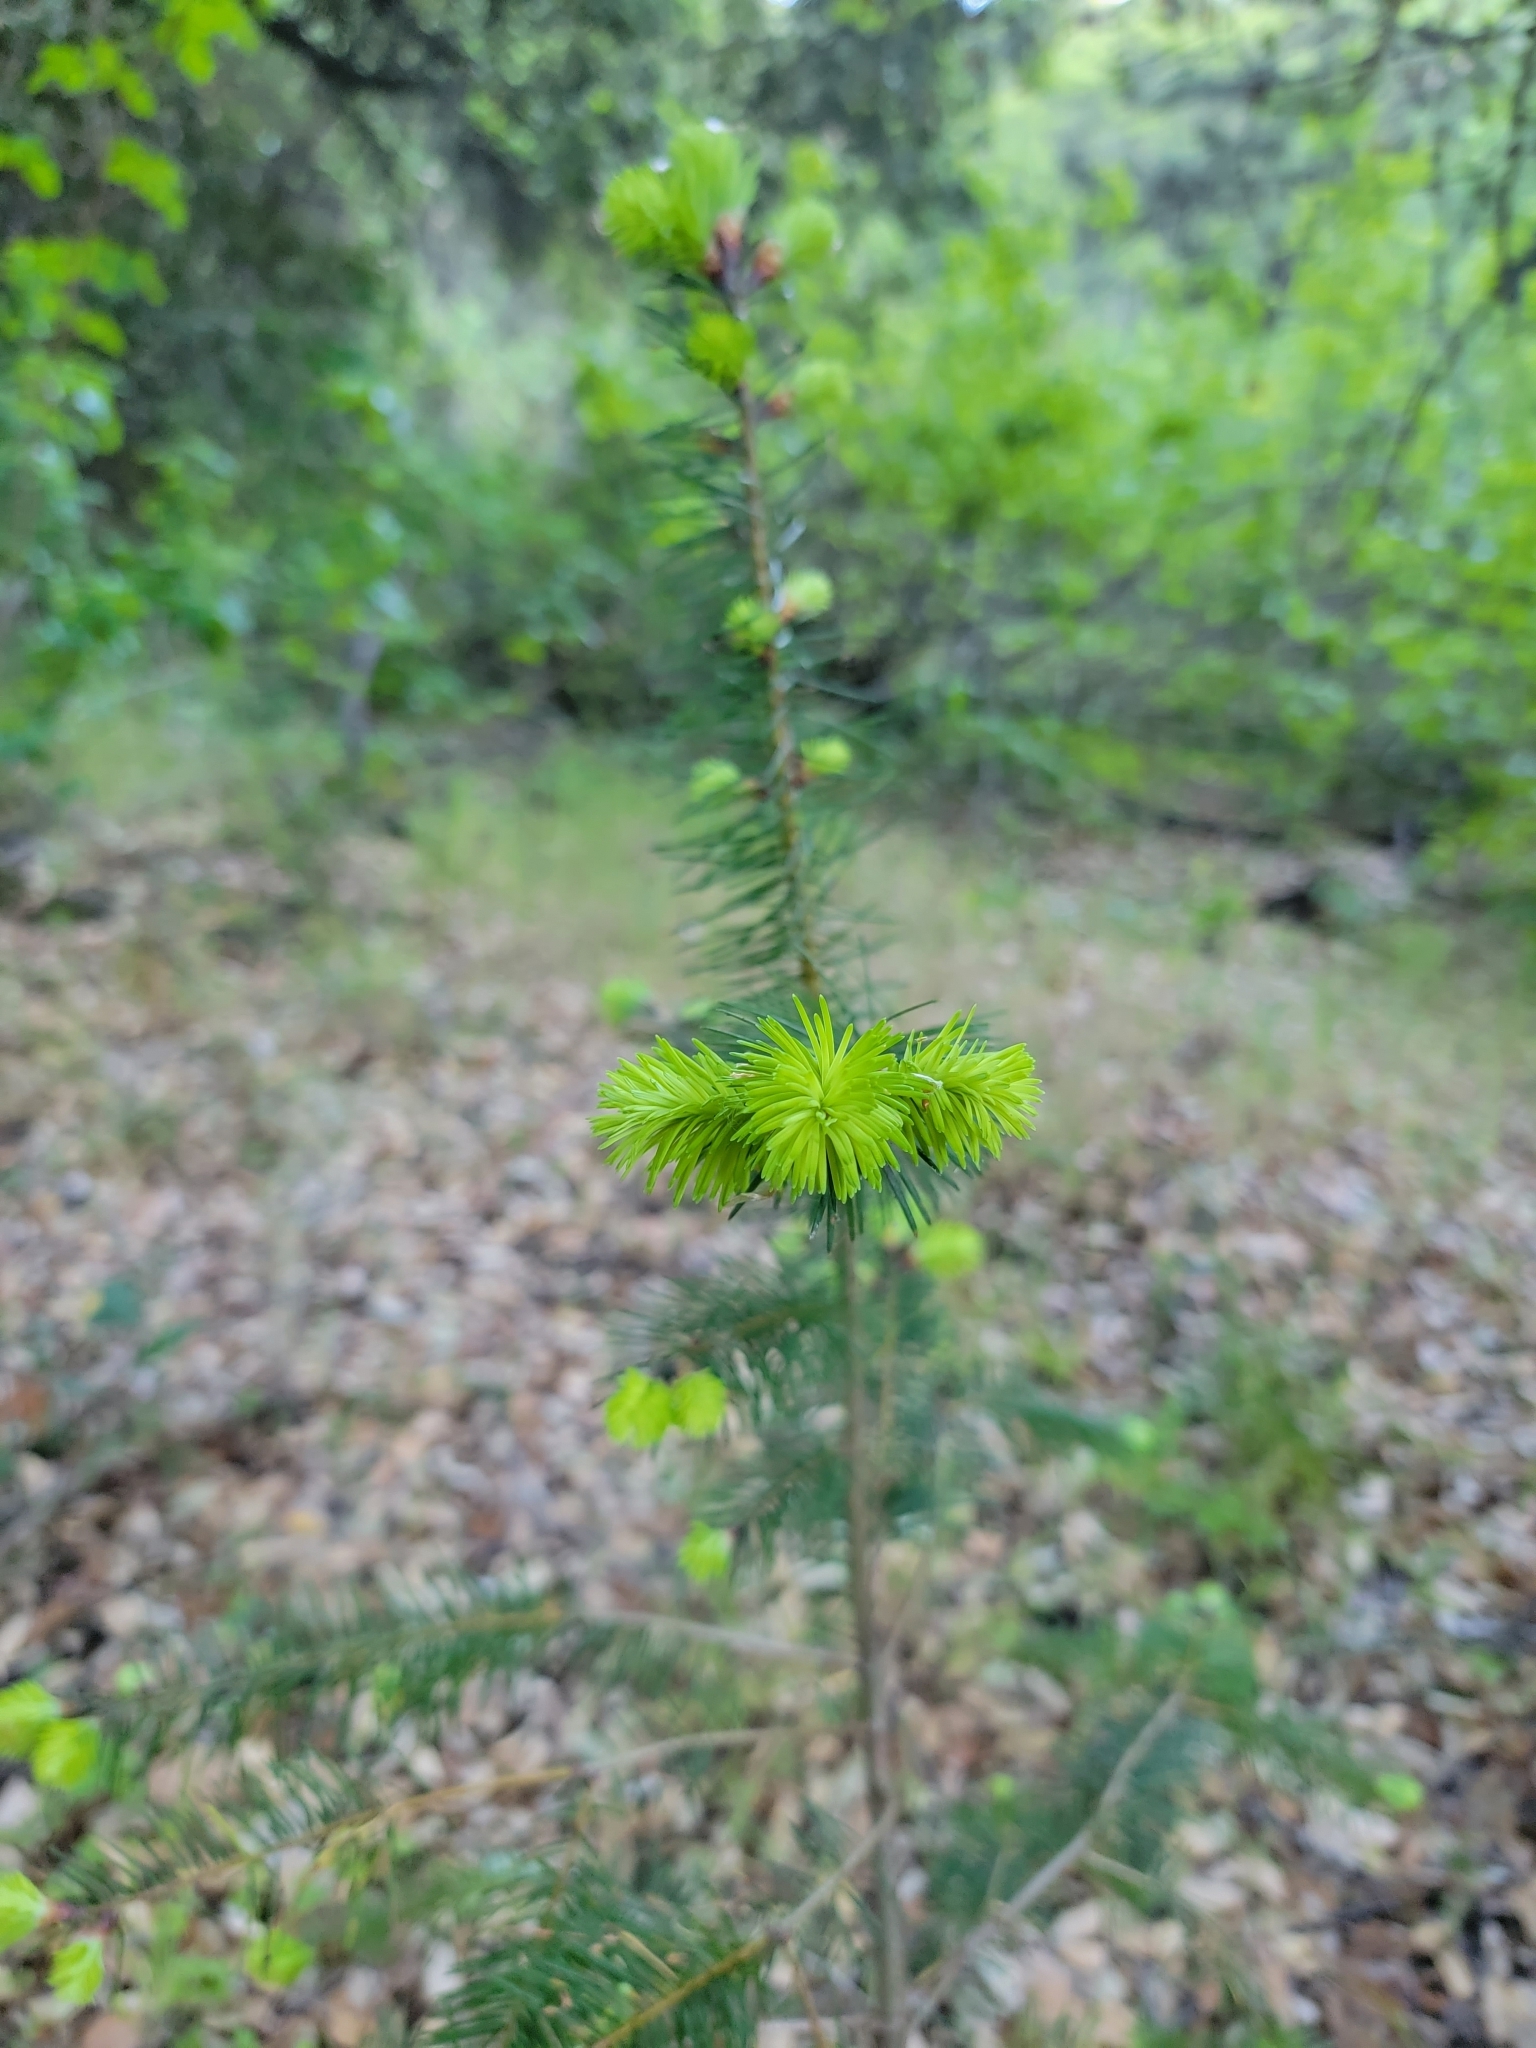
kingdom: Plantae
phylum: Tracheophyta
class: Pinopsida
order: Pinales
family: Pinaceae
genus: Pseudotsuga
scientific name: Pseudotsuga menziesii
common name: Douglas fir
